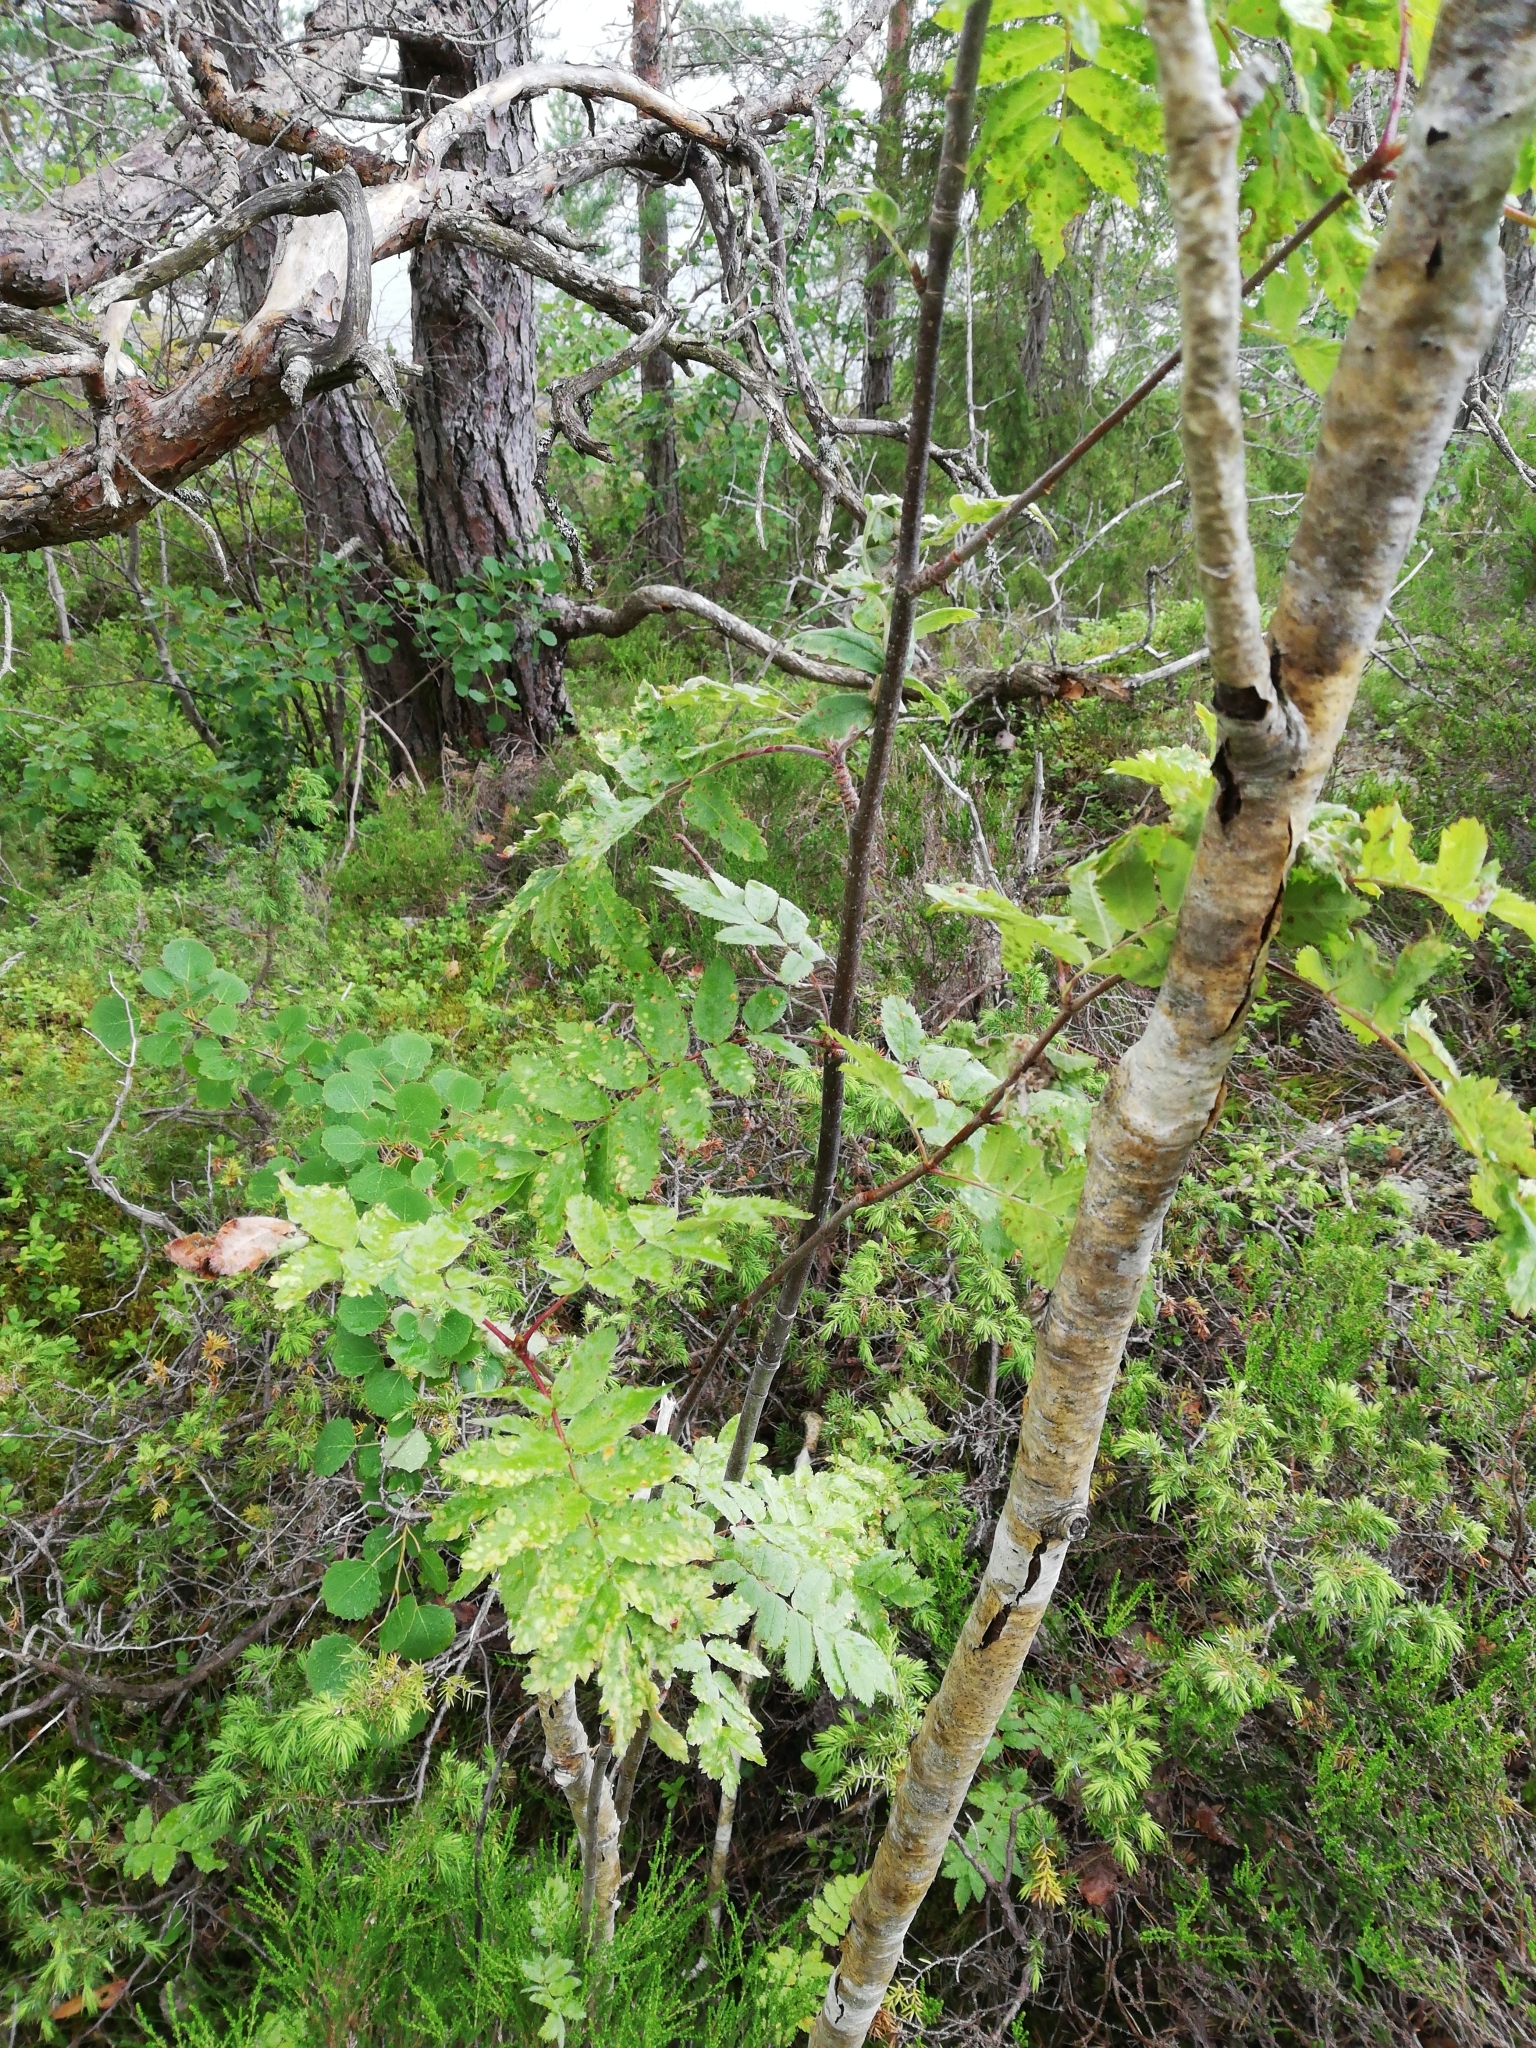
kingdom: Plantae
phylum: Tracheophyta
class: Magnoliopsida
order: Rosales
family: Rosaceae
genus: Sorbus
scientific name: Sorbus aucuparia
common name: Rowan
